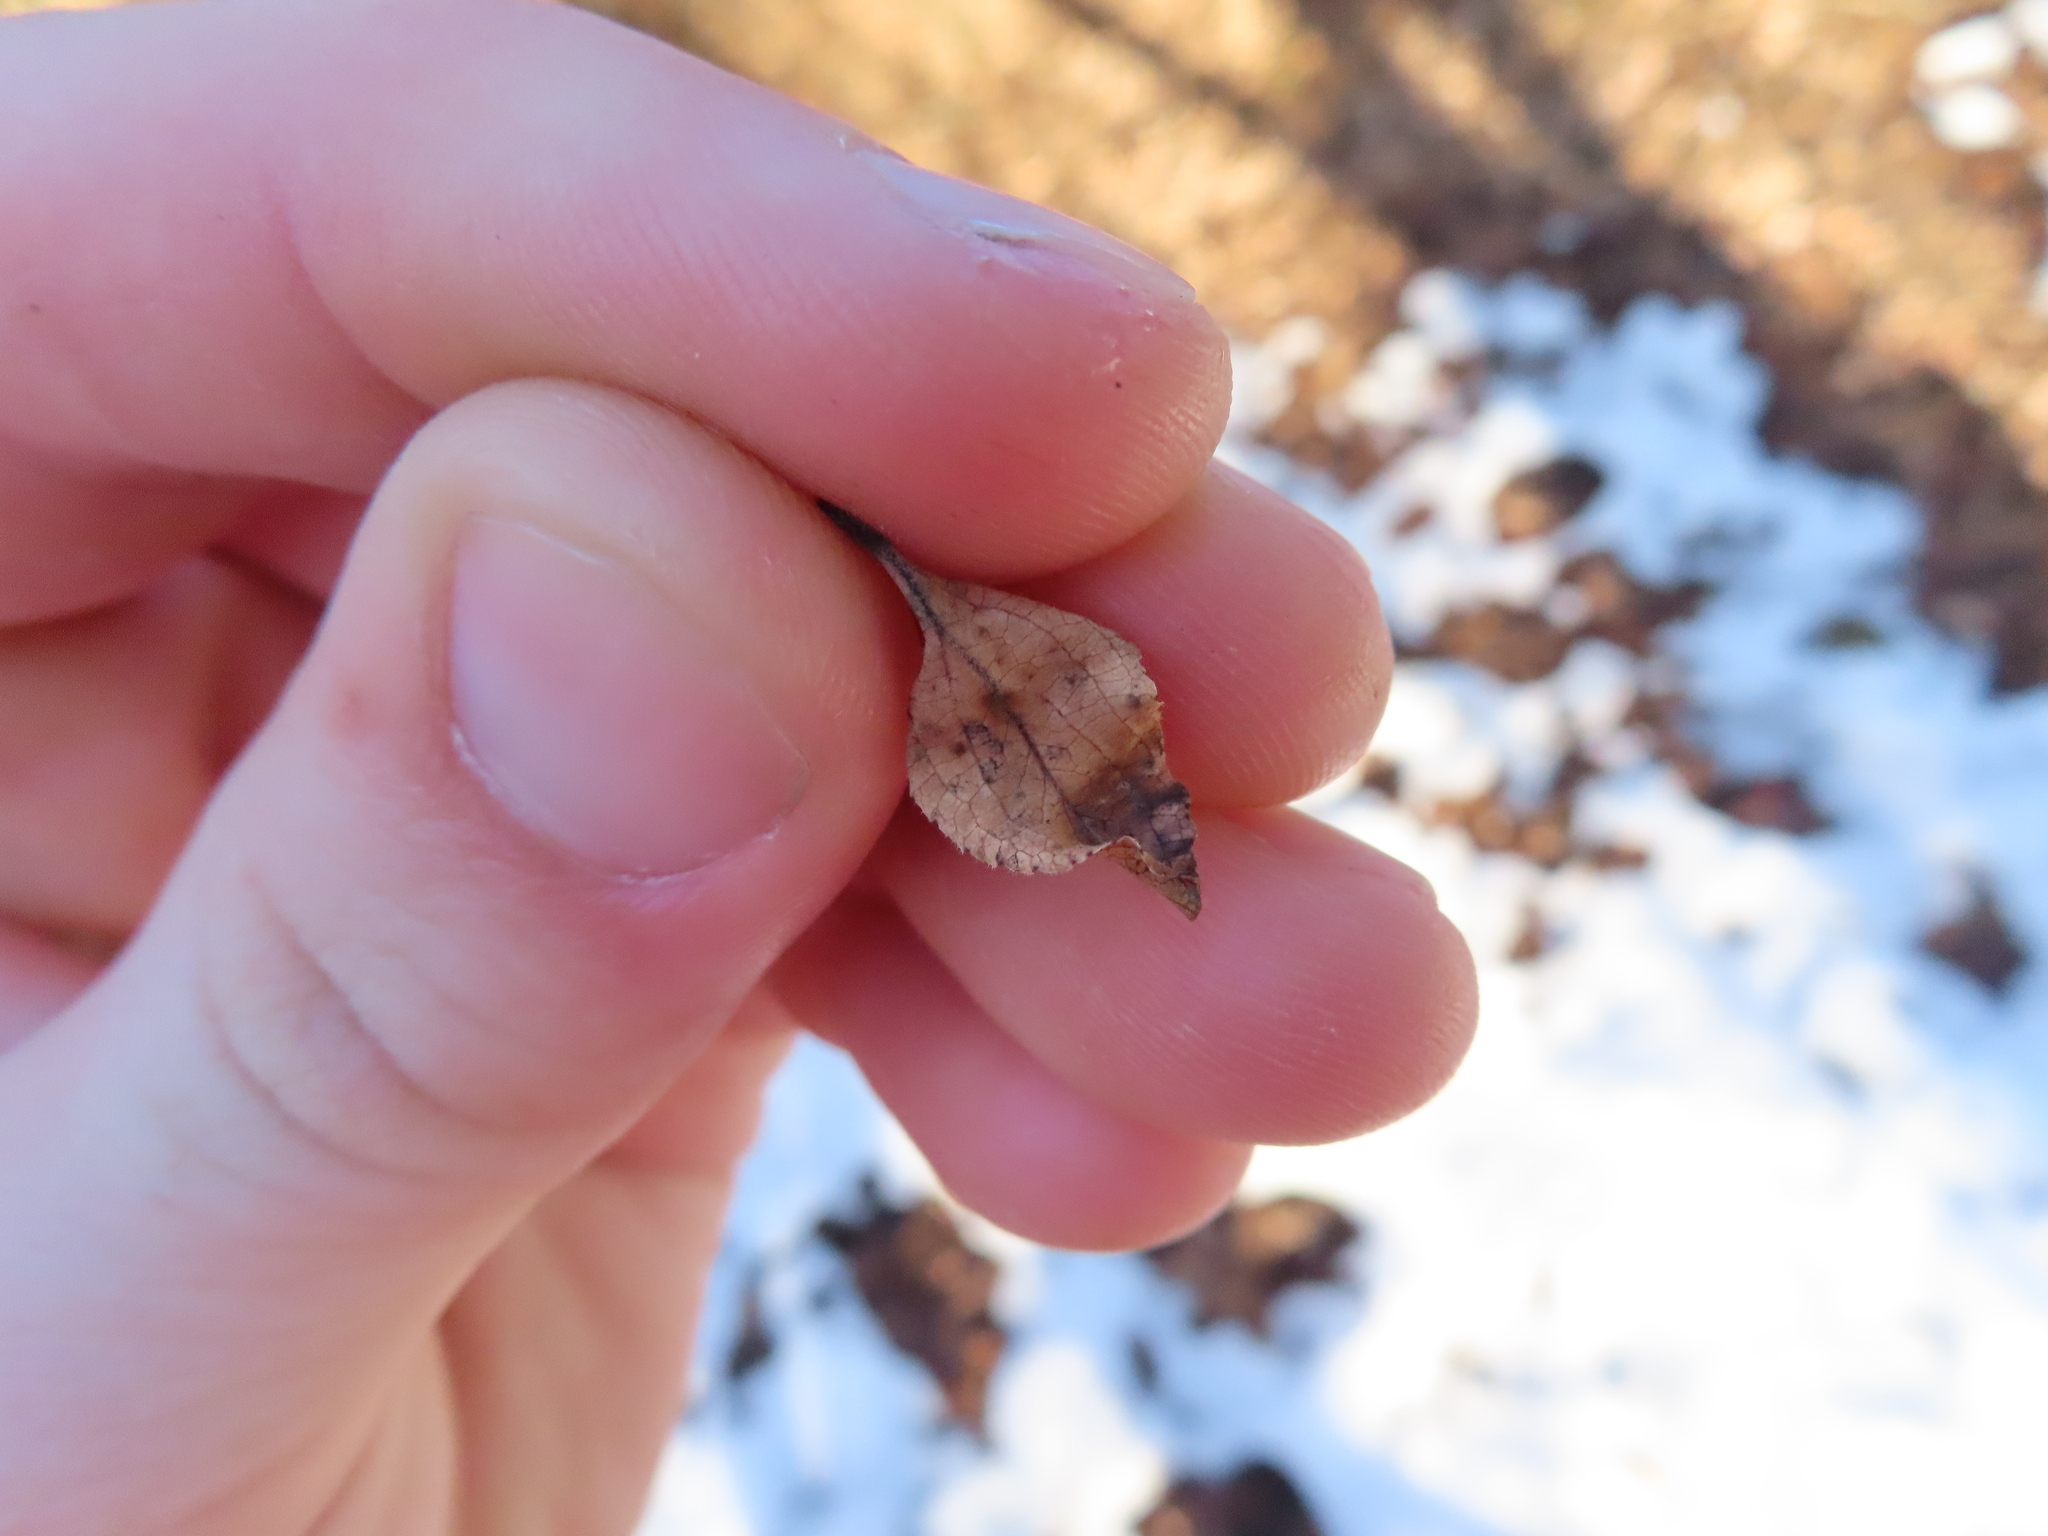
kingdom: Animalia
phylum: Arthropoda
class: Arachnida
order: Trombidiformes
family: Eriophyidae
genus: Aceria
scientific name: Aceria fraxiniflora
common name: Ash flower gall mite
